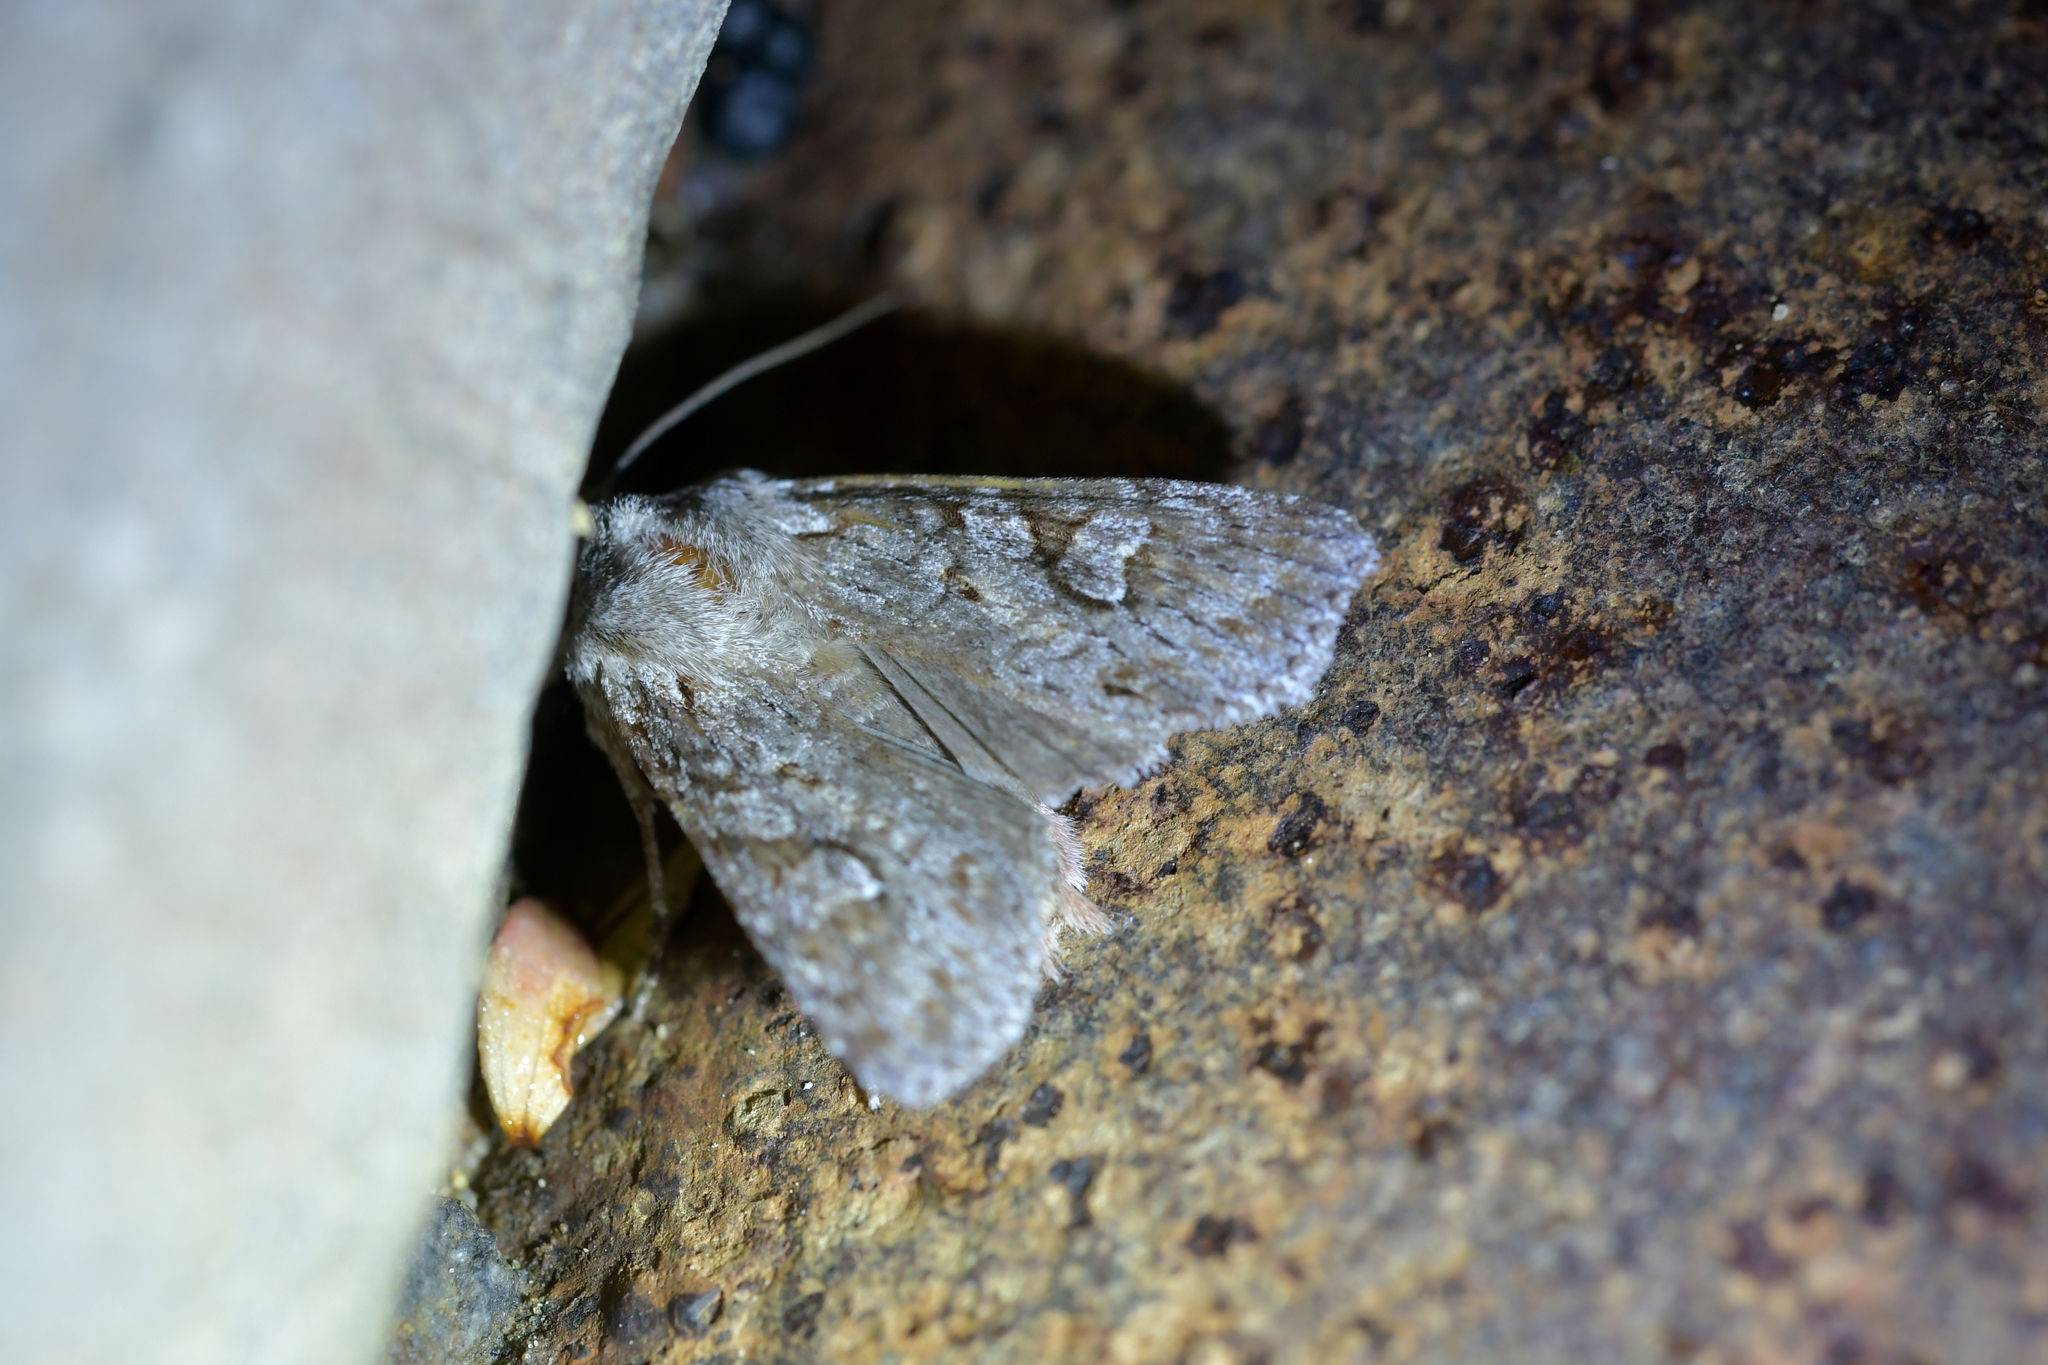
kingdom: Animalia
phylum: Arthropoda
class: Insecta
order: Lepidoptera
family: Noctuidae
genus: Physetica
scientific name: Physetica longstaffii
